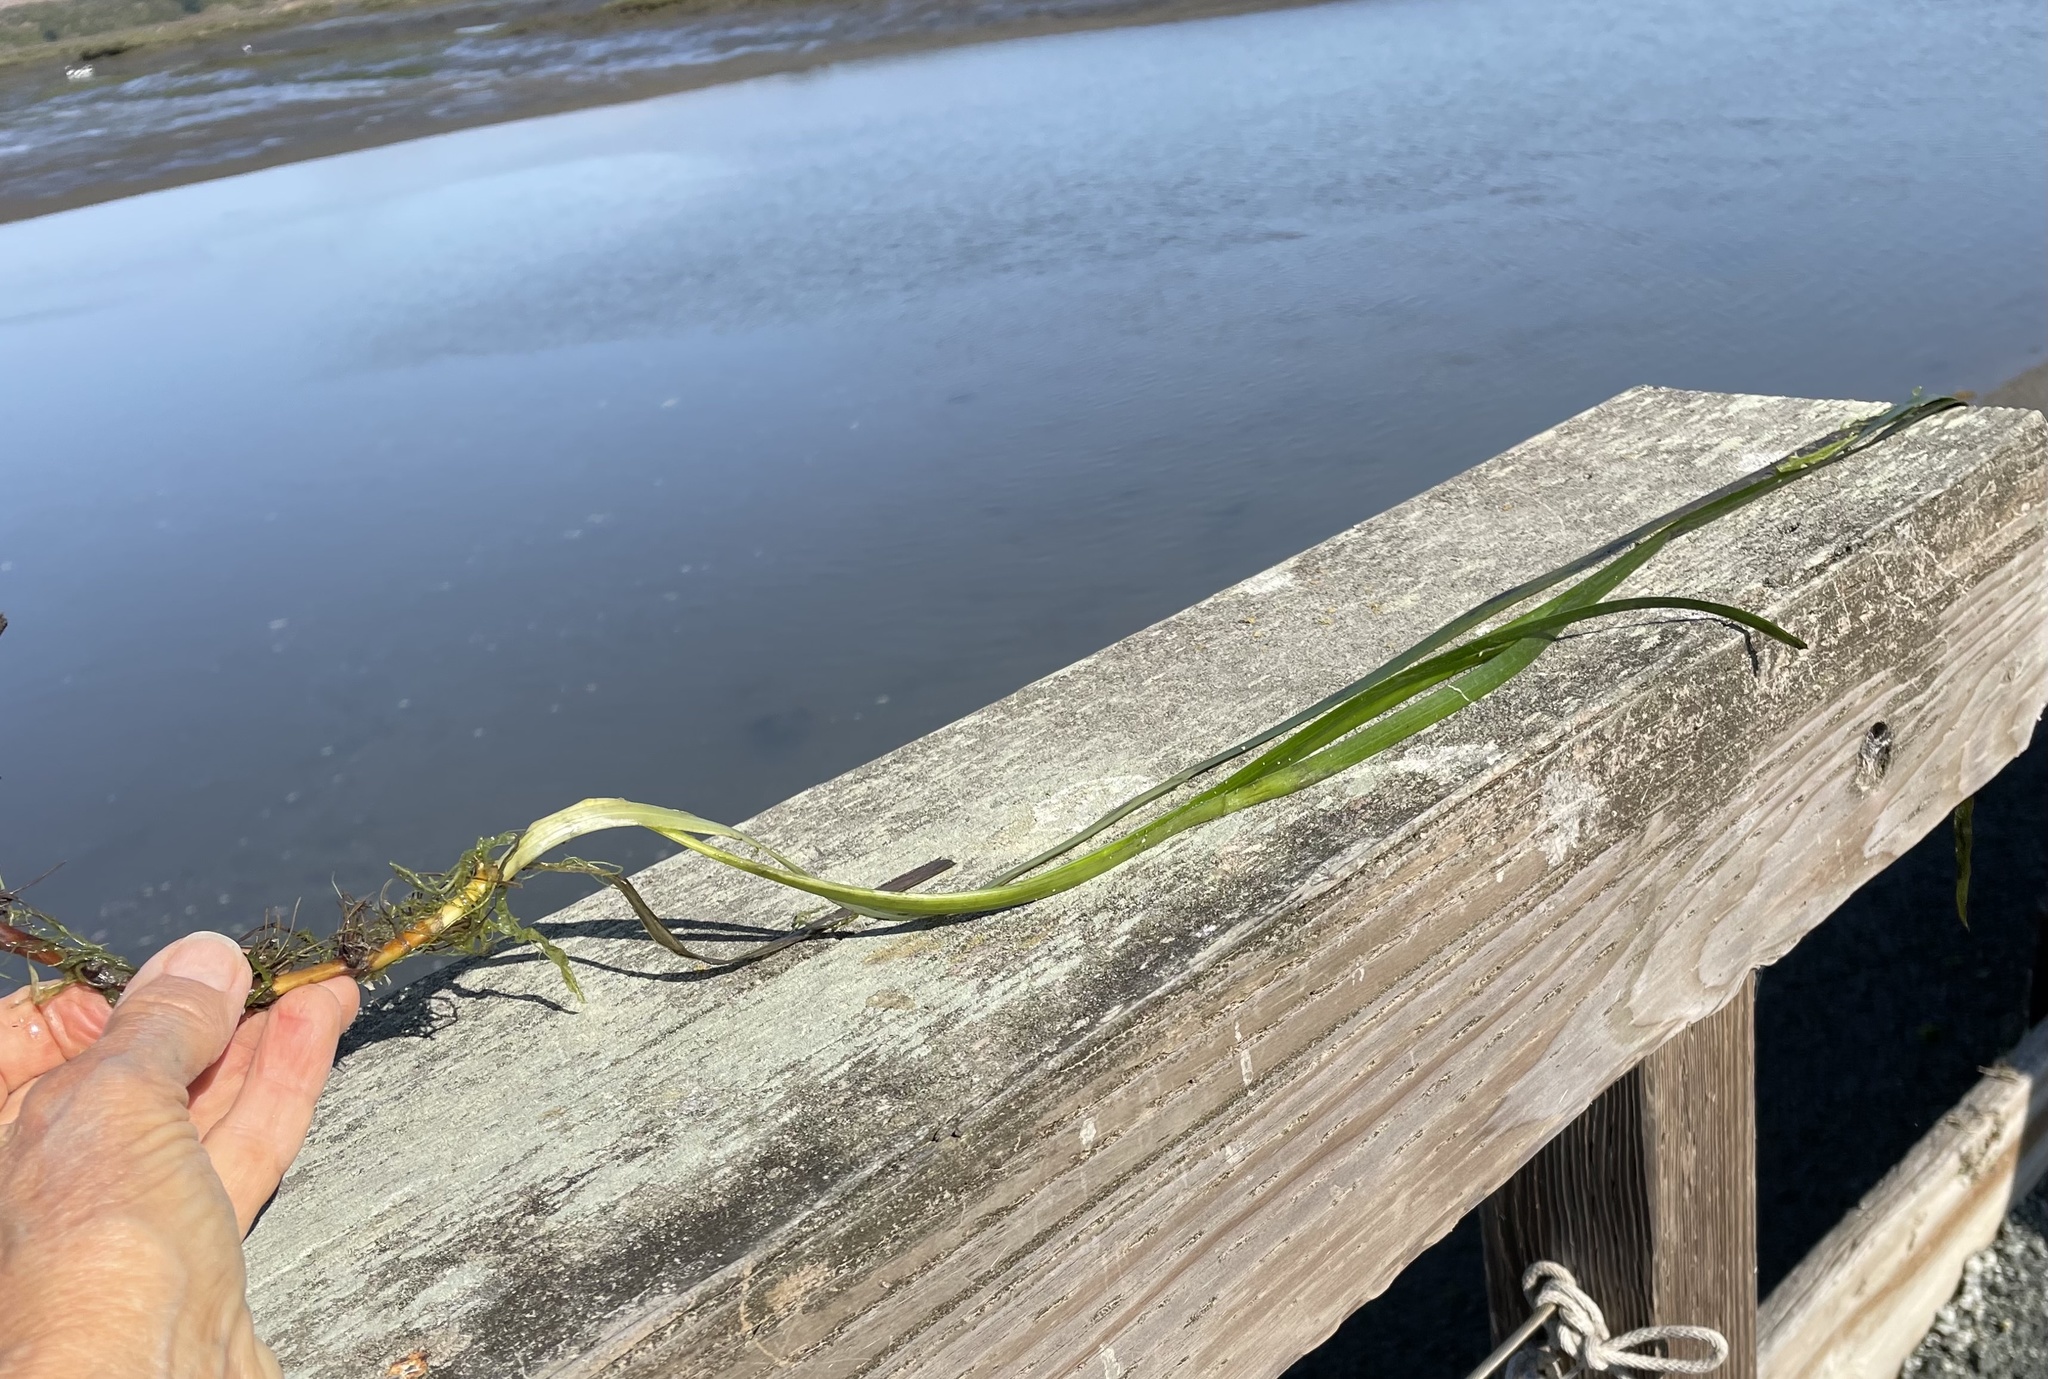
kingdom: Plantae
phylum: Tracheophyta
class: Liliopsida
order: Alismatales
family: Zosteraceae
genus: Zostera
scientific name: Zostera marina
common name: Eelgrass
